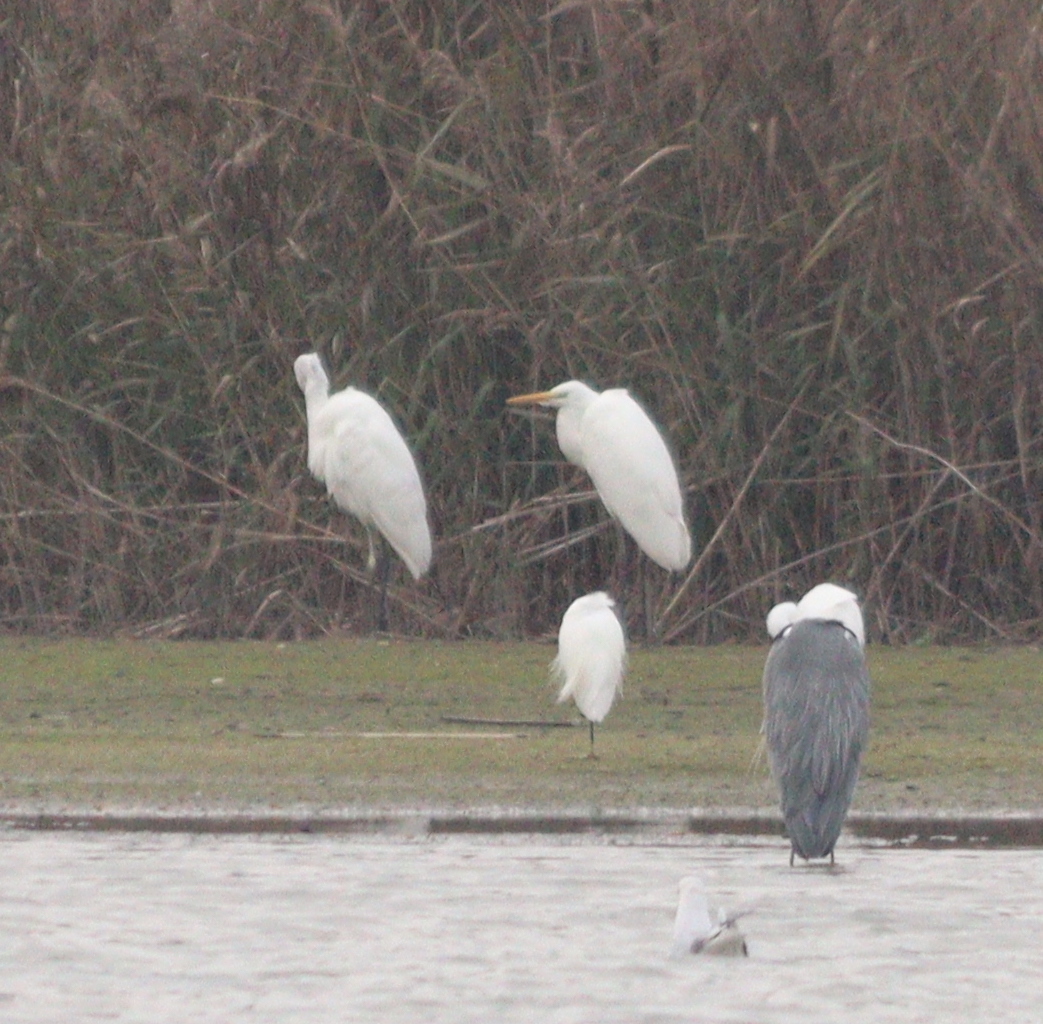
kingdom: Animalia
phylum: Chordata
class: Aves
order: Pelecaniformes
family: Ardeidae
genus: Ardea
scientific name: Ardea alba
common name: Great egret
